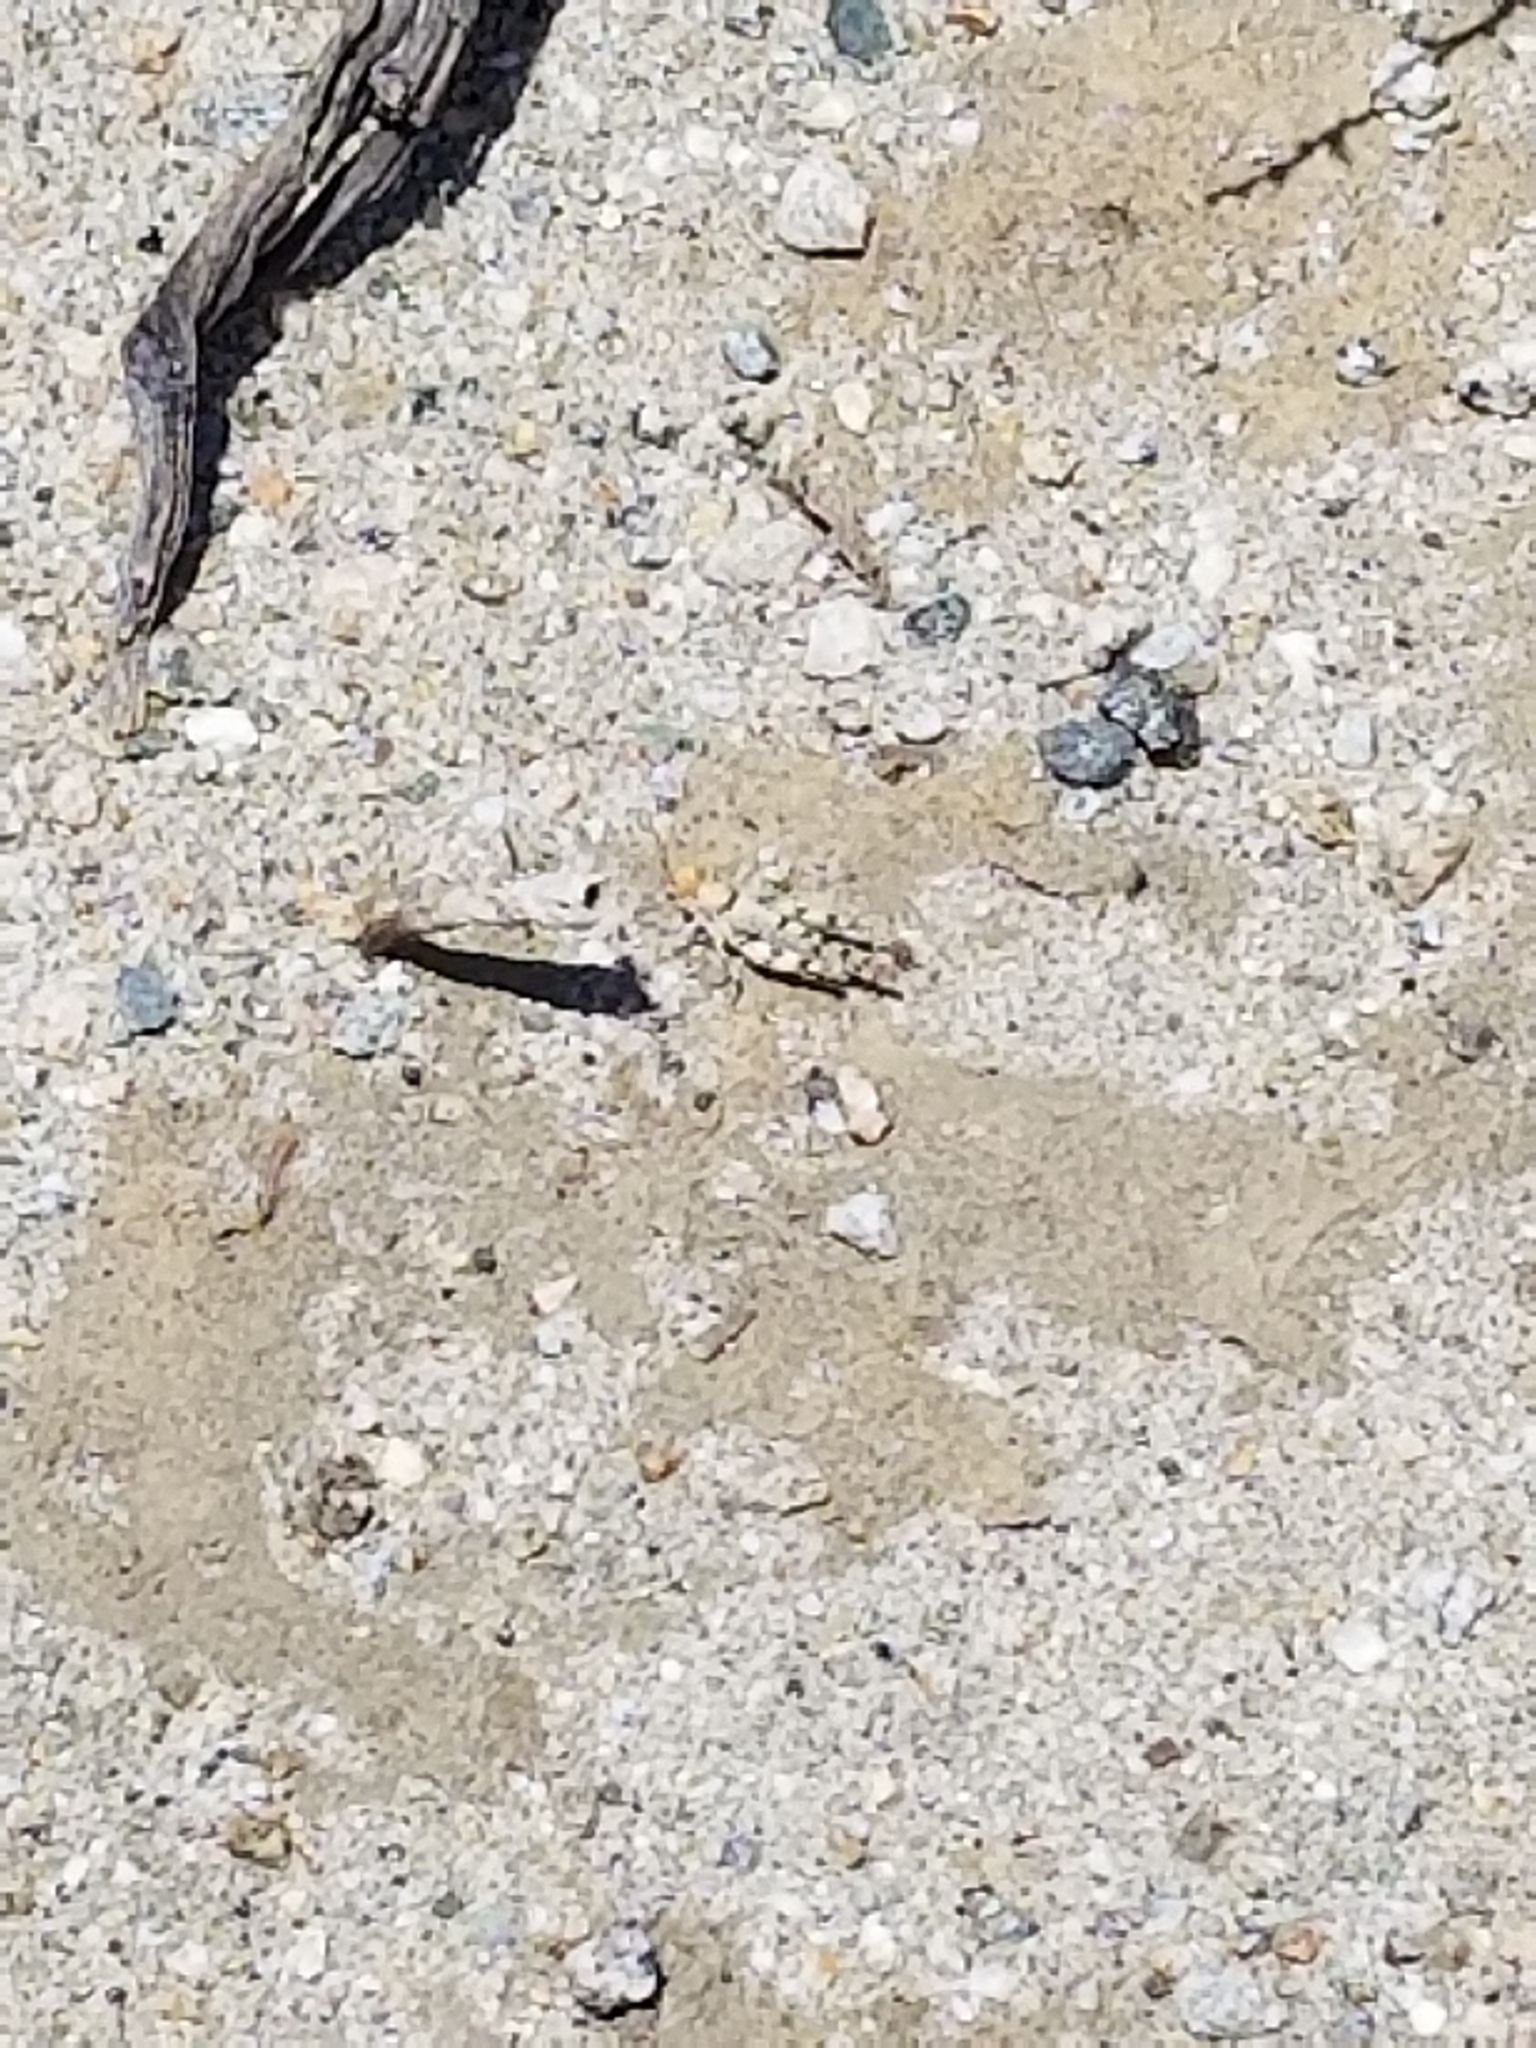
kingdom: Animalia
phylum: Arthropoda
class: Insecta
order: Orthoptera
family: Acrididae
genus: Cibolacris
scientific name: Cibolacris parviceps
